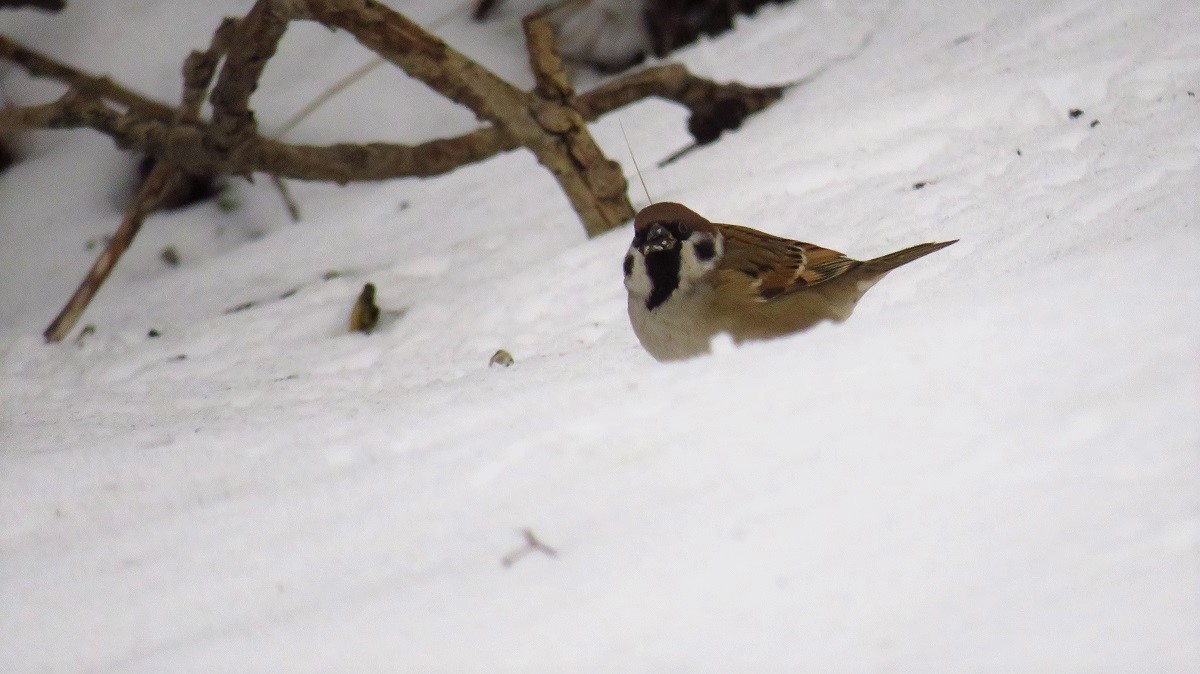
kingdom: Animalia
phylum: Chordata
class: Aves
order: Passeriformes
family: Passeridae
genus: Passer
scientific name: Passer montanus
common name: Eurasian tree sparrow
